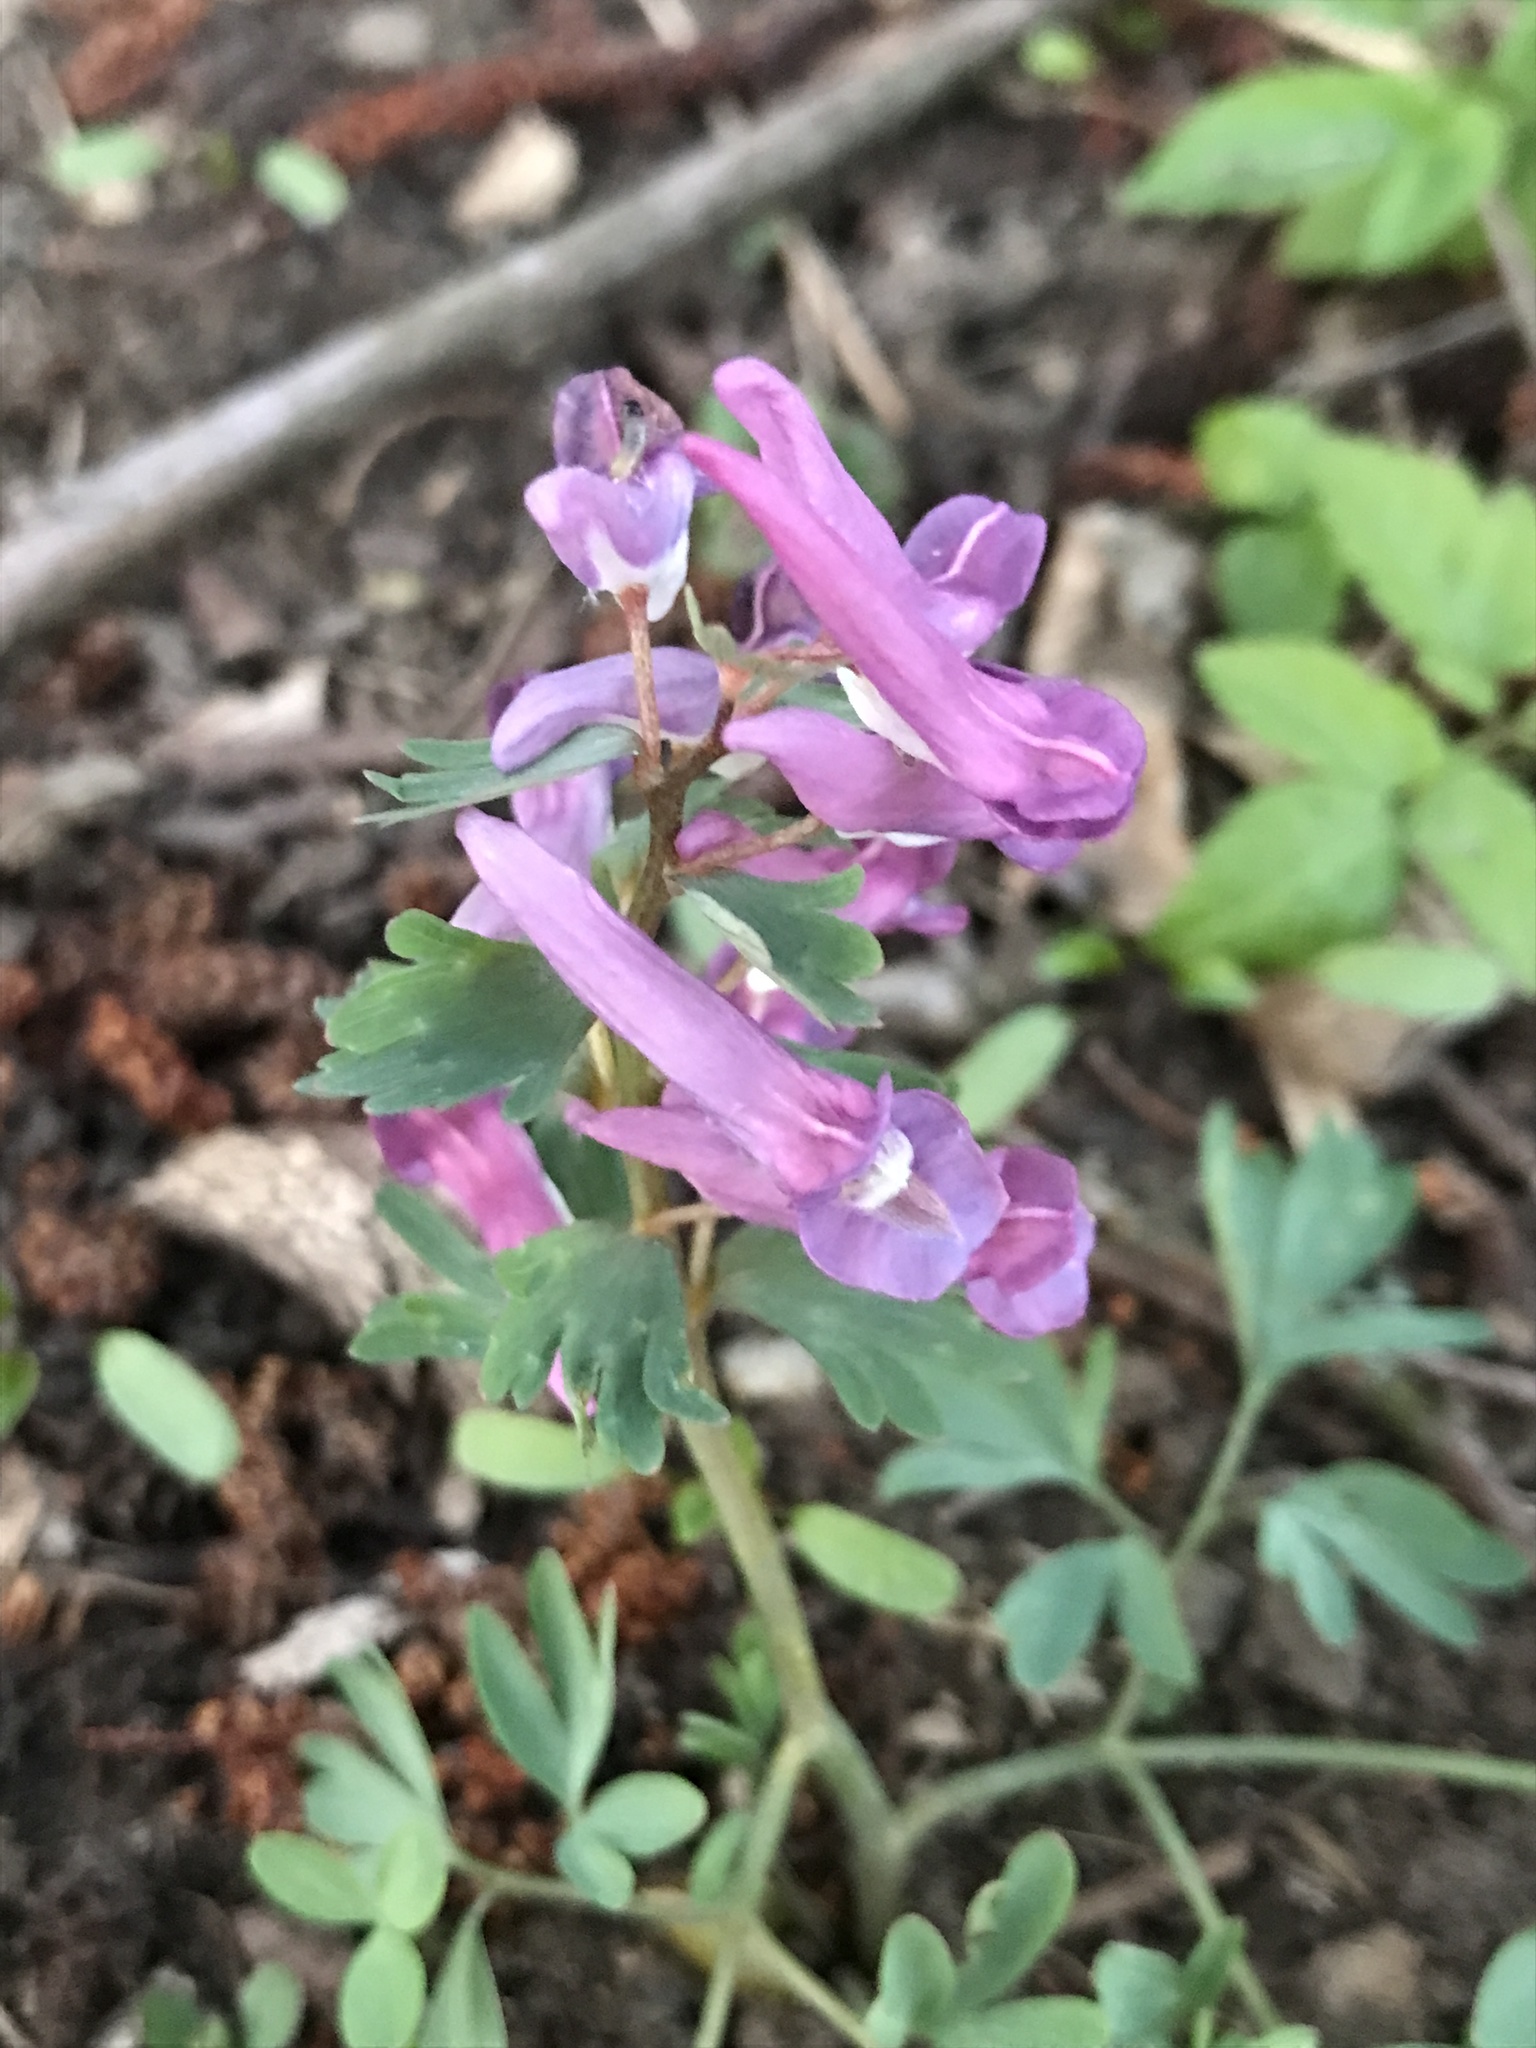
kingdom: Plantae
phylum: Tracheophyta
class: Magnoliopsida
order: Ranunculales
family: Papaveraceae
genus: Corydalis
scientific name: Corydalis solida
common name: Bird-in-a-bush
